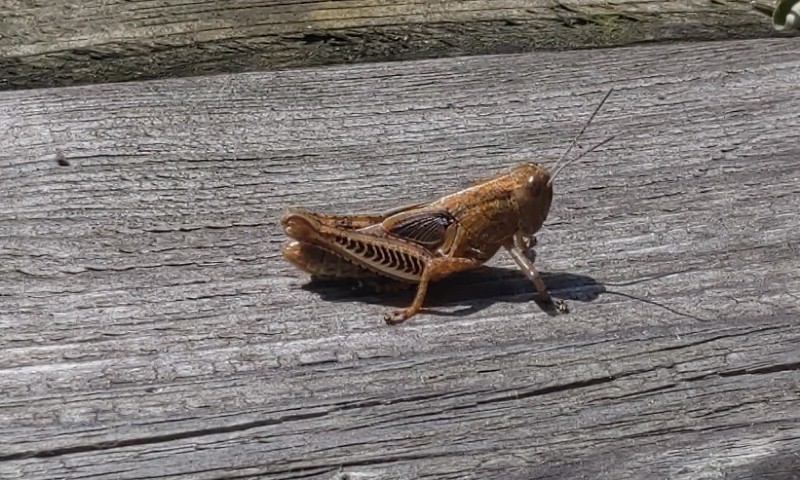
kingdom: Animalia
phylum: Arthropoda
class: Insecta
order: Orthoptera
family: Acrididae
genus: Melanoplus
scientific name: Melanoplus differentialis
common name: Differential grasshopper
